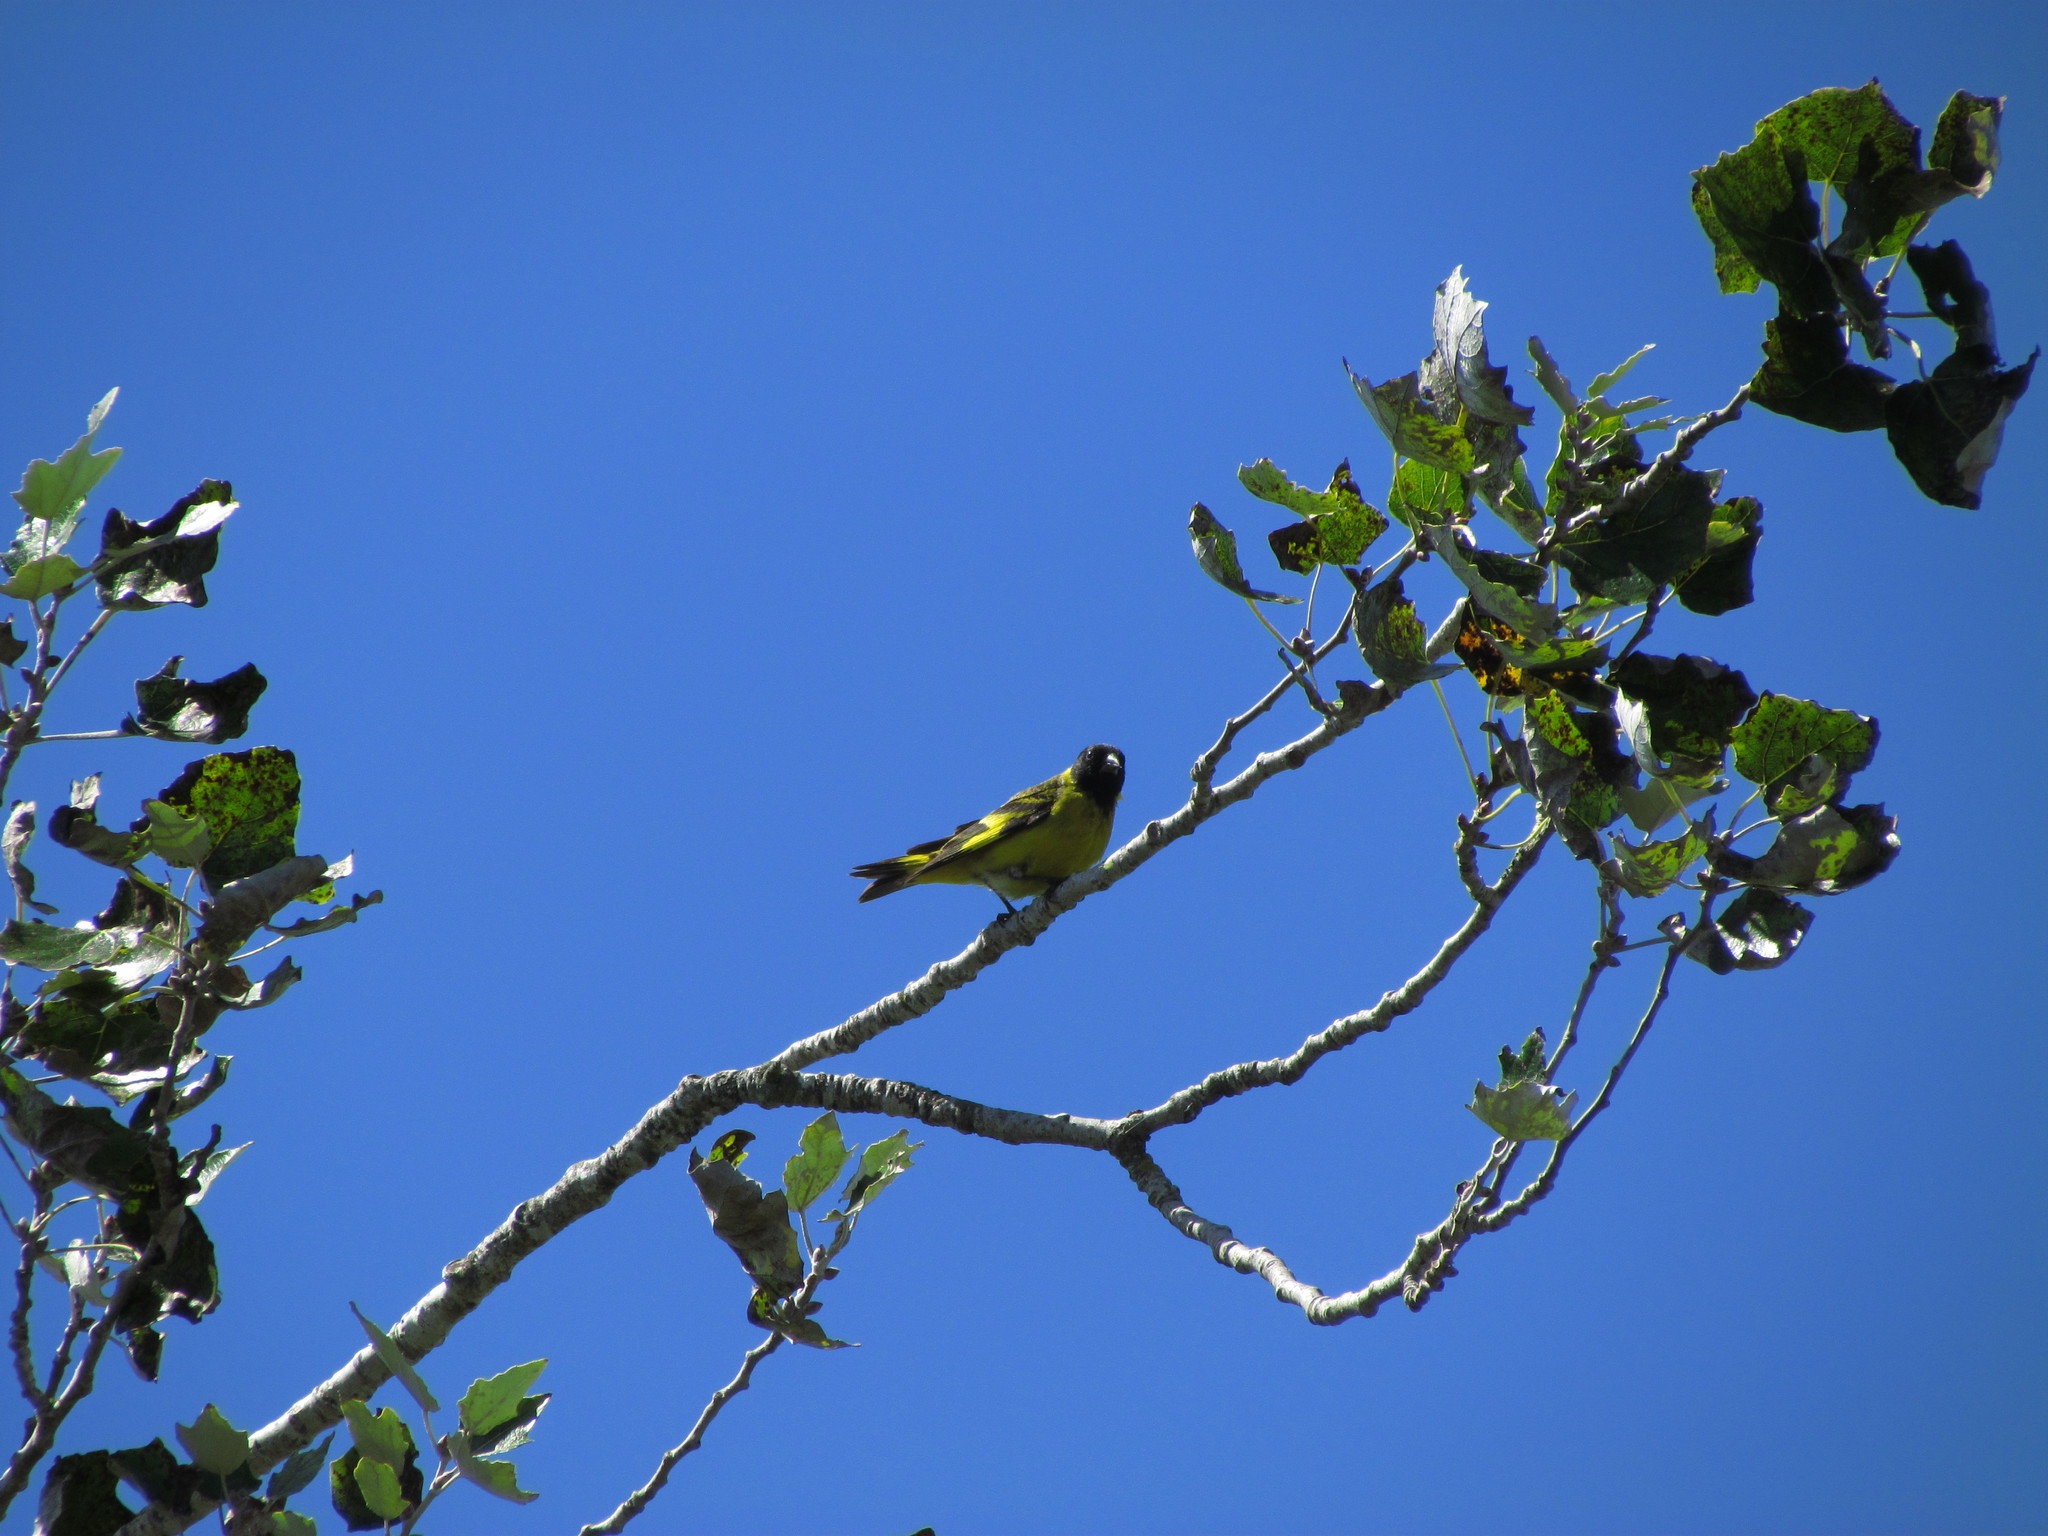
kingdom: Animalia
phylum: Chordata
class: Aves
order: Passeriformes
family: Fringillidae
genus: Spinus
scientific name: Spinus magellanicus
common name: Hooded siskin
